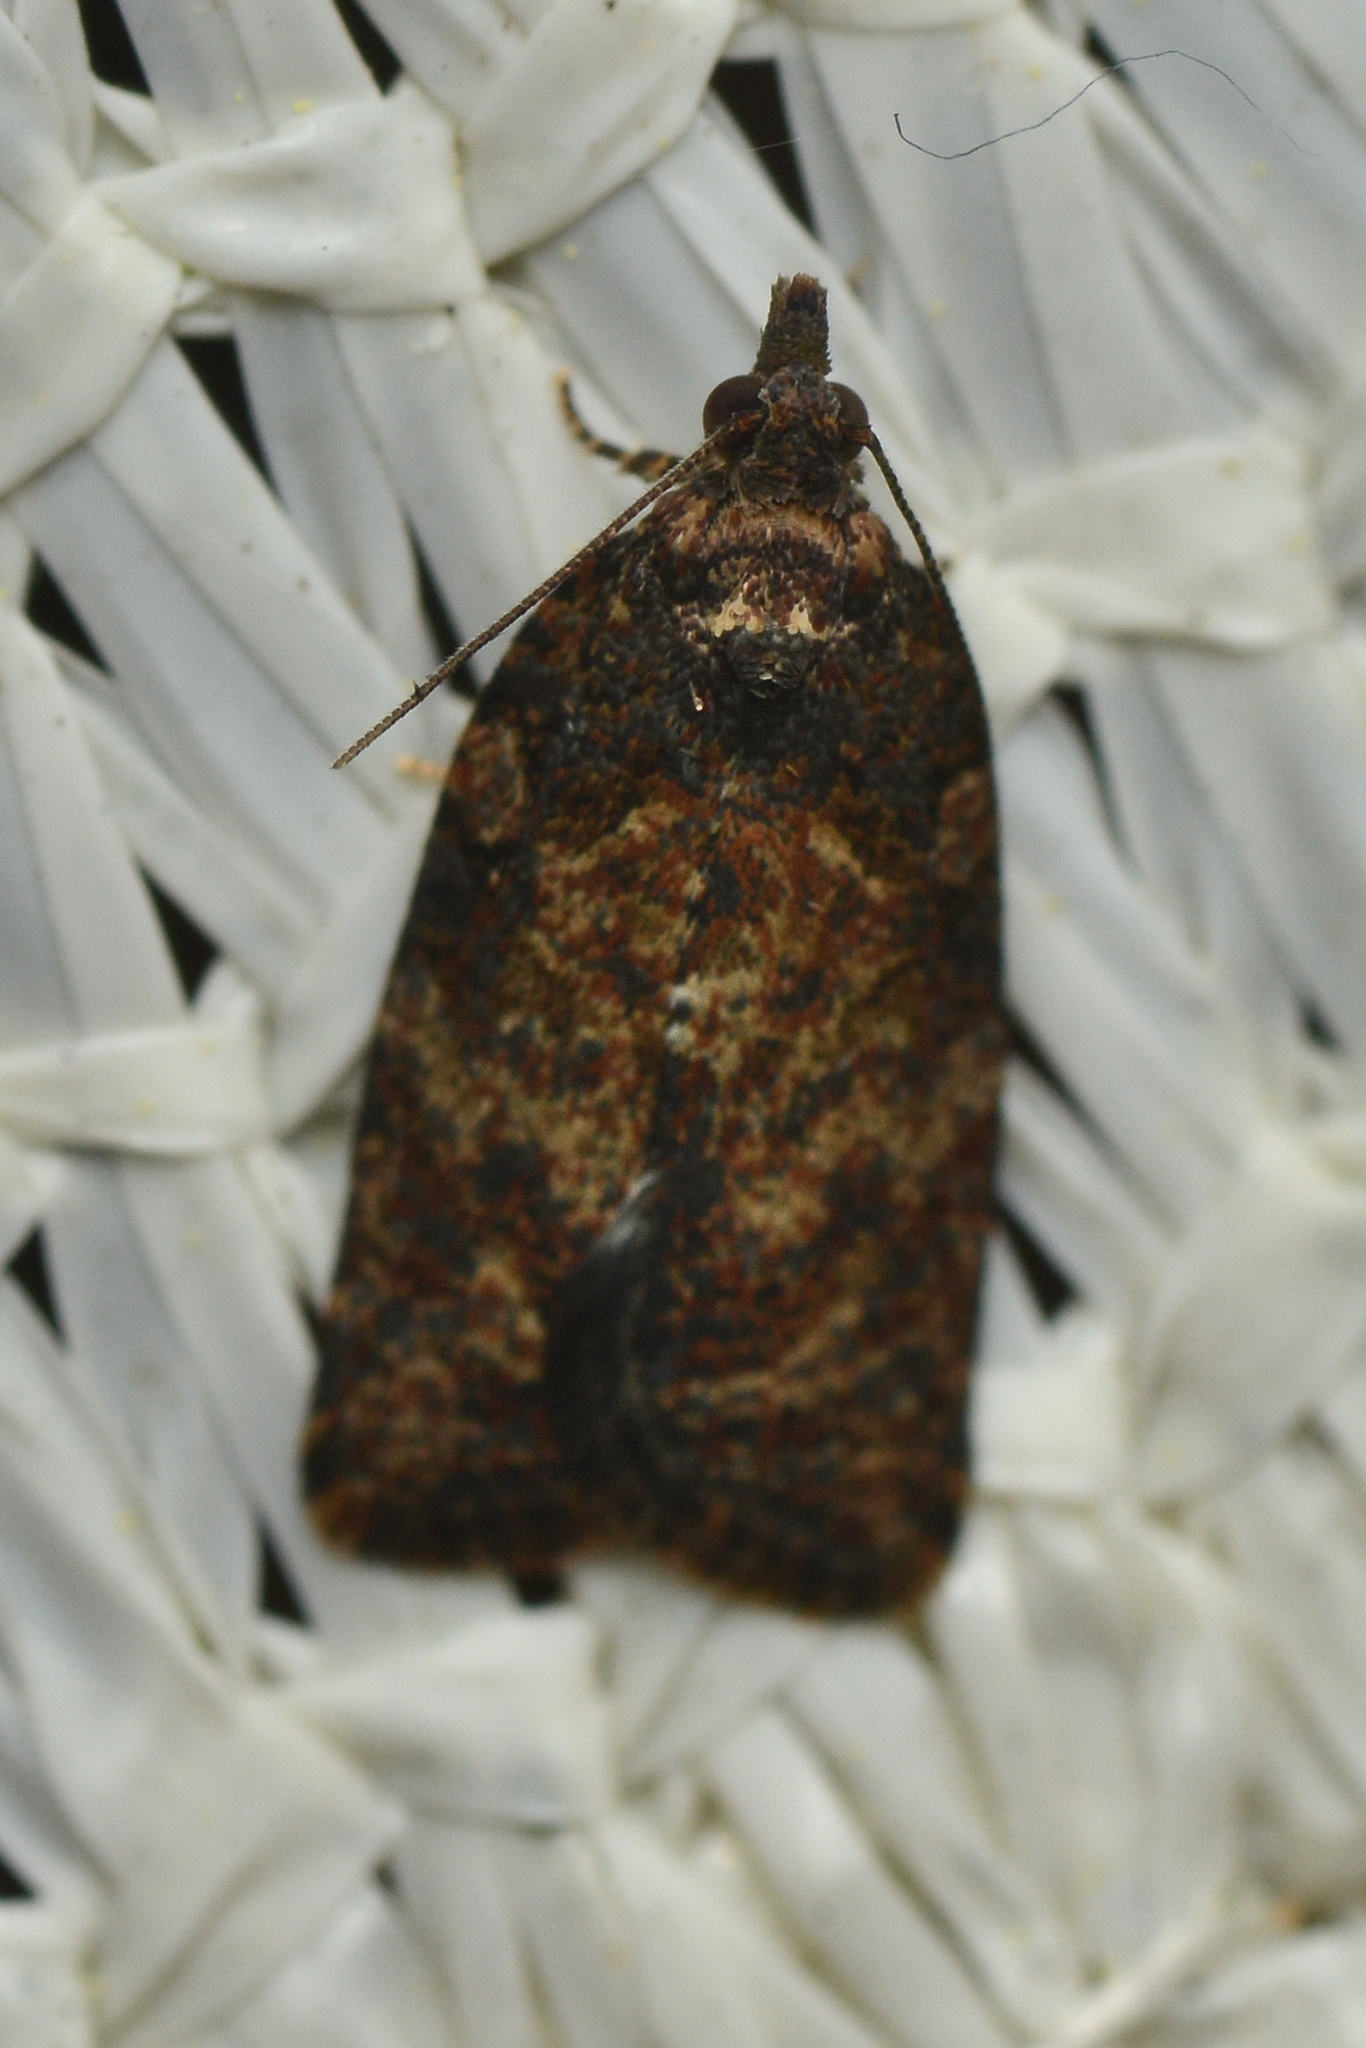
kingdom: Animalia
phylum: Arthropoda
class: Insecta
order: Lepidoptera
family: Tortricidae
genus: Capua
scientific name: Capua intractana
